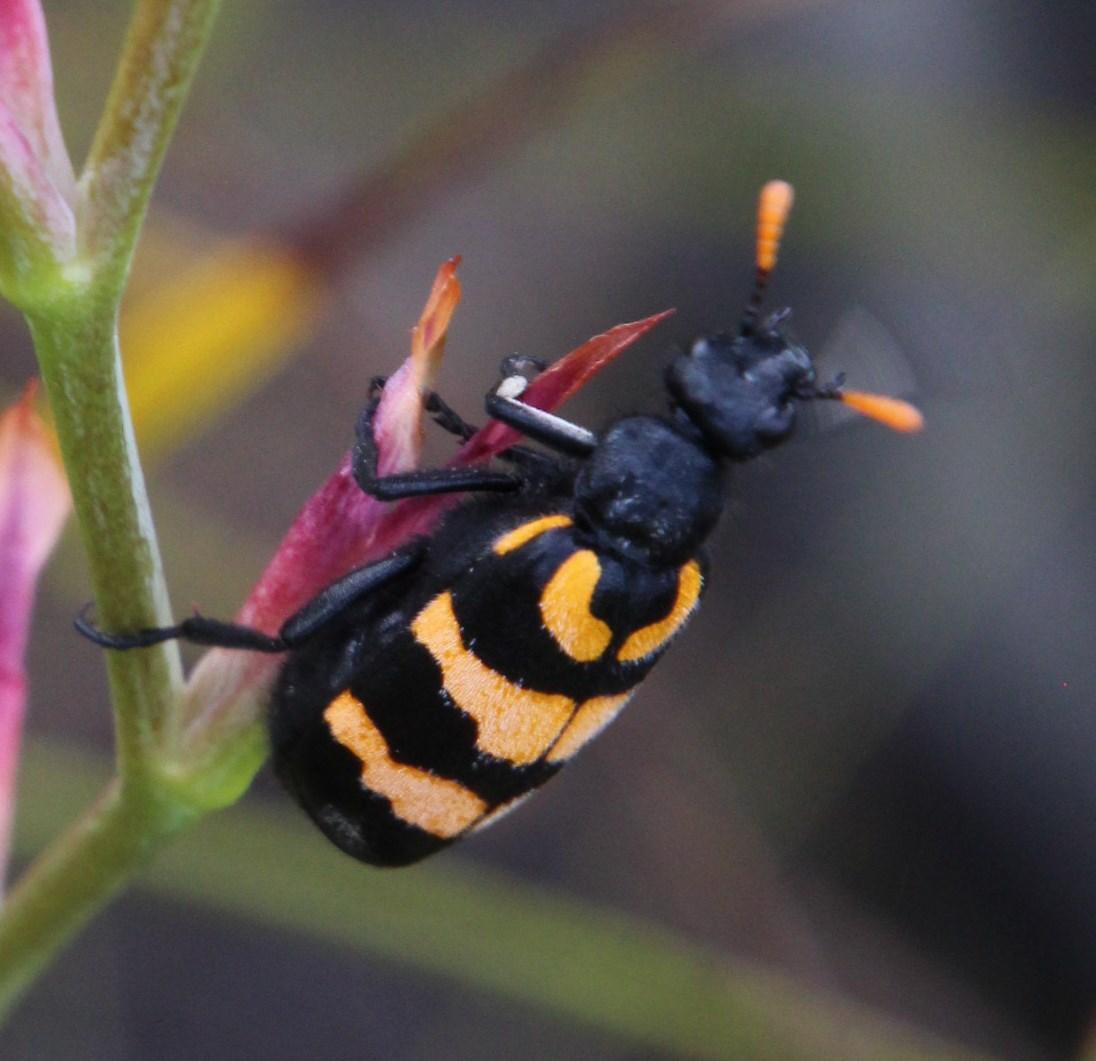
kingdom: Animalia
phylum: Arthropoda
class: Insecta
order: Coleoptera
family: Meloidae
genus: Meloe
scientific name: Meloe lunata
